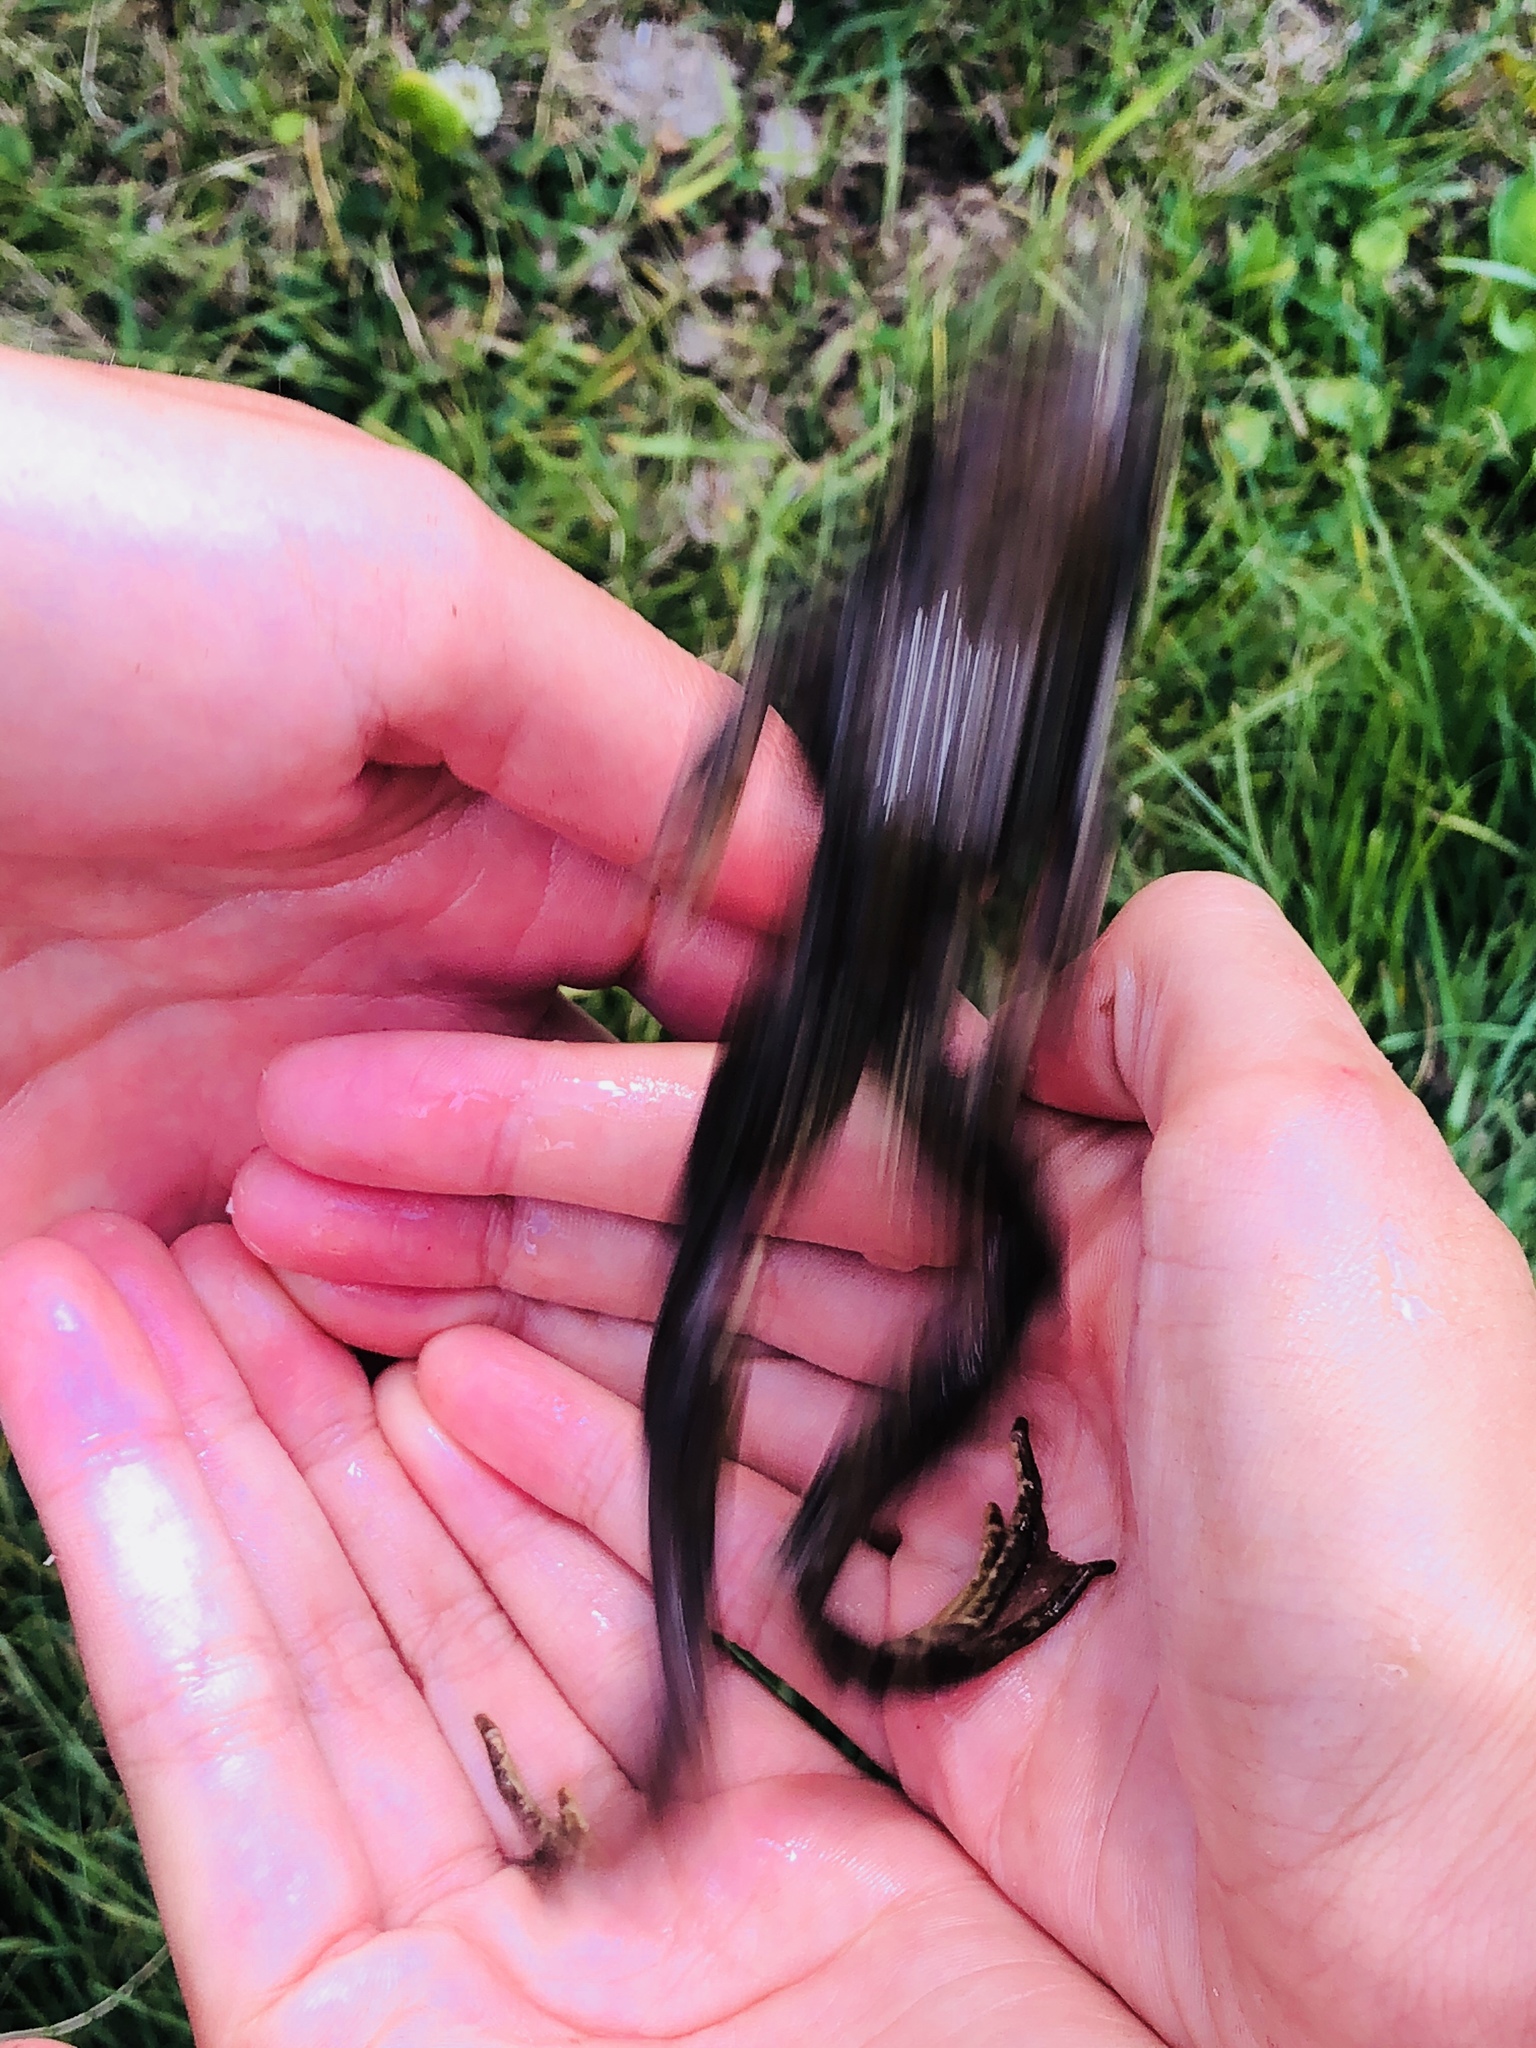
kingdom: Animalia
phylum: Chordata
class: Amphibia
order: Anura
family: Ranidae
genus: Rana
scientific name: Rana temporaria
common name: Common frog
